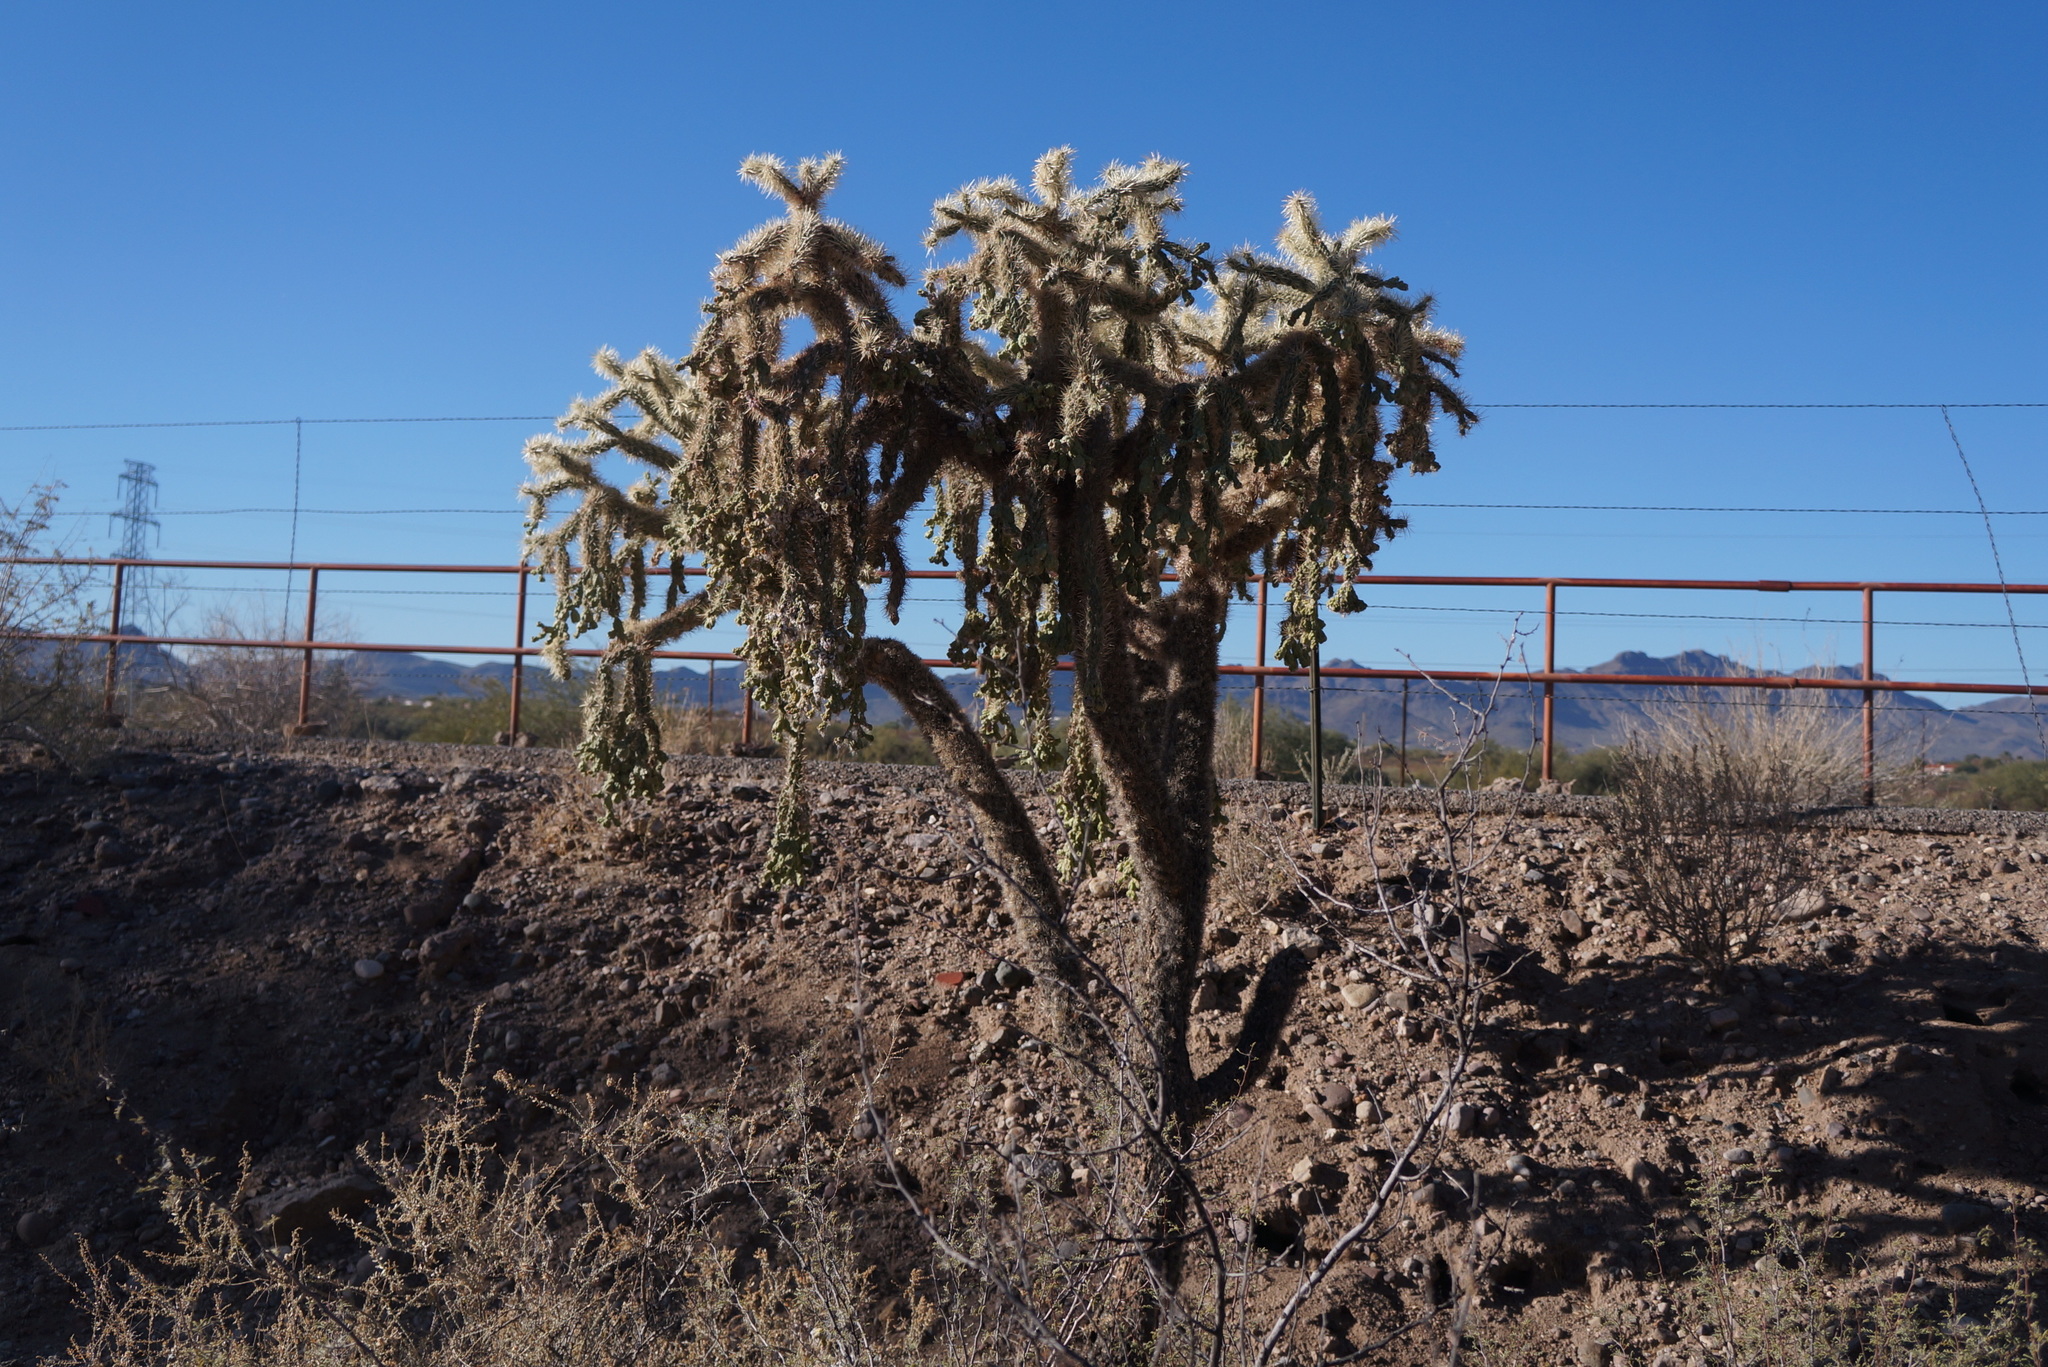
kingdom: Plantae
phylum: Tracheophyta
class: Magnoliopsida
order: Caryophyllales
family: Cactaceae
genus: Cylindropuntia
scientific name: Cylindropuntia fulgida
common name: Jumping cholla
